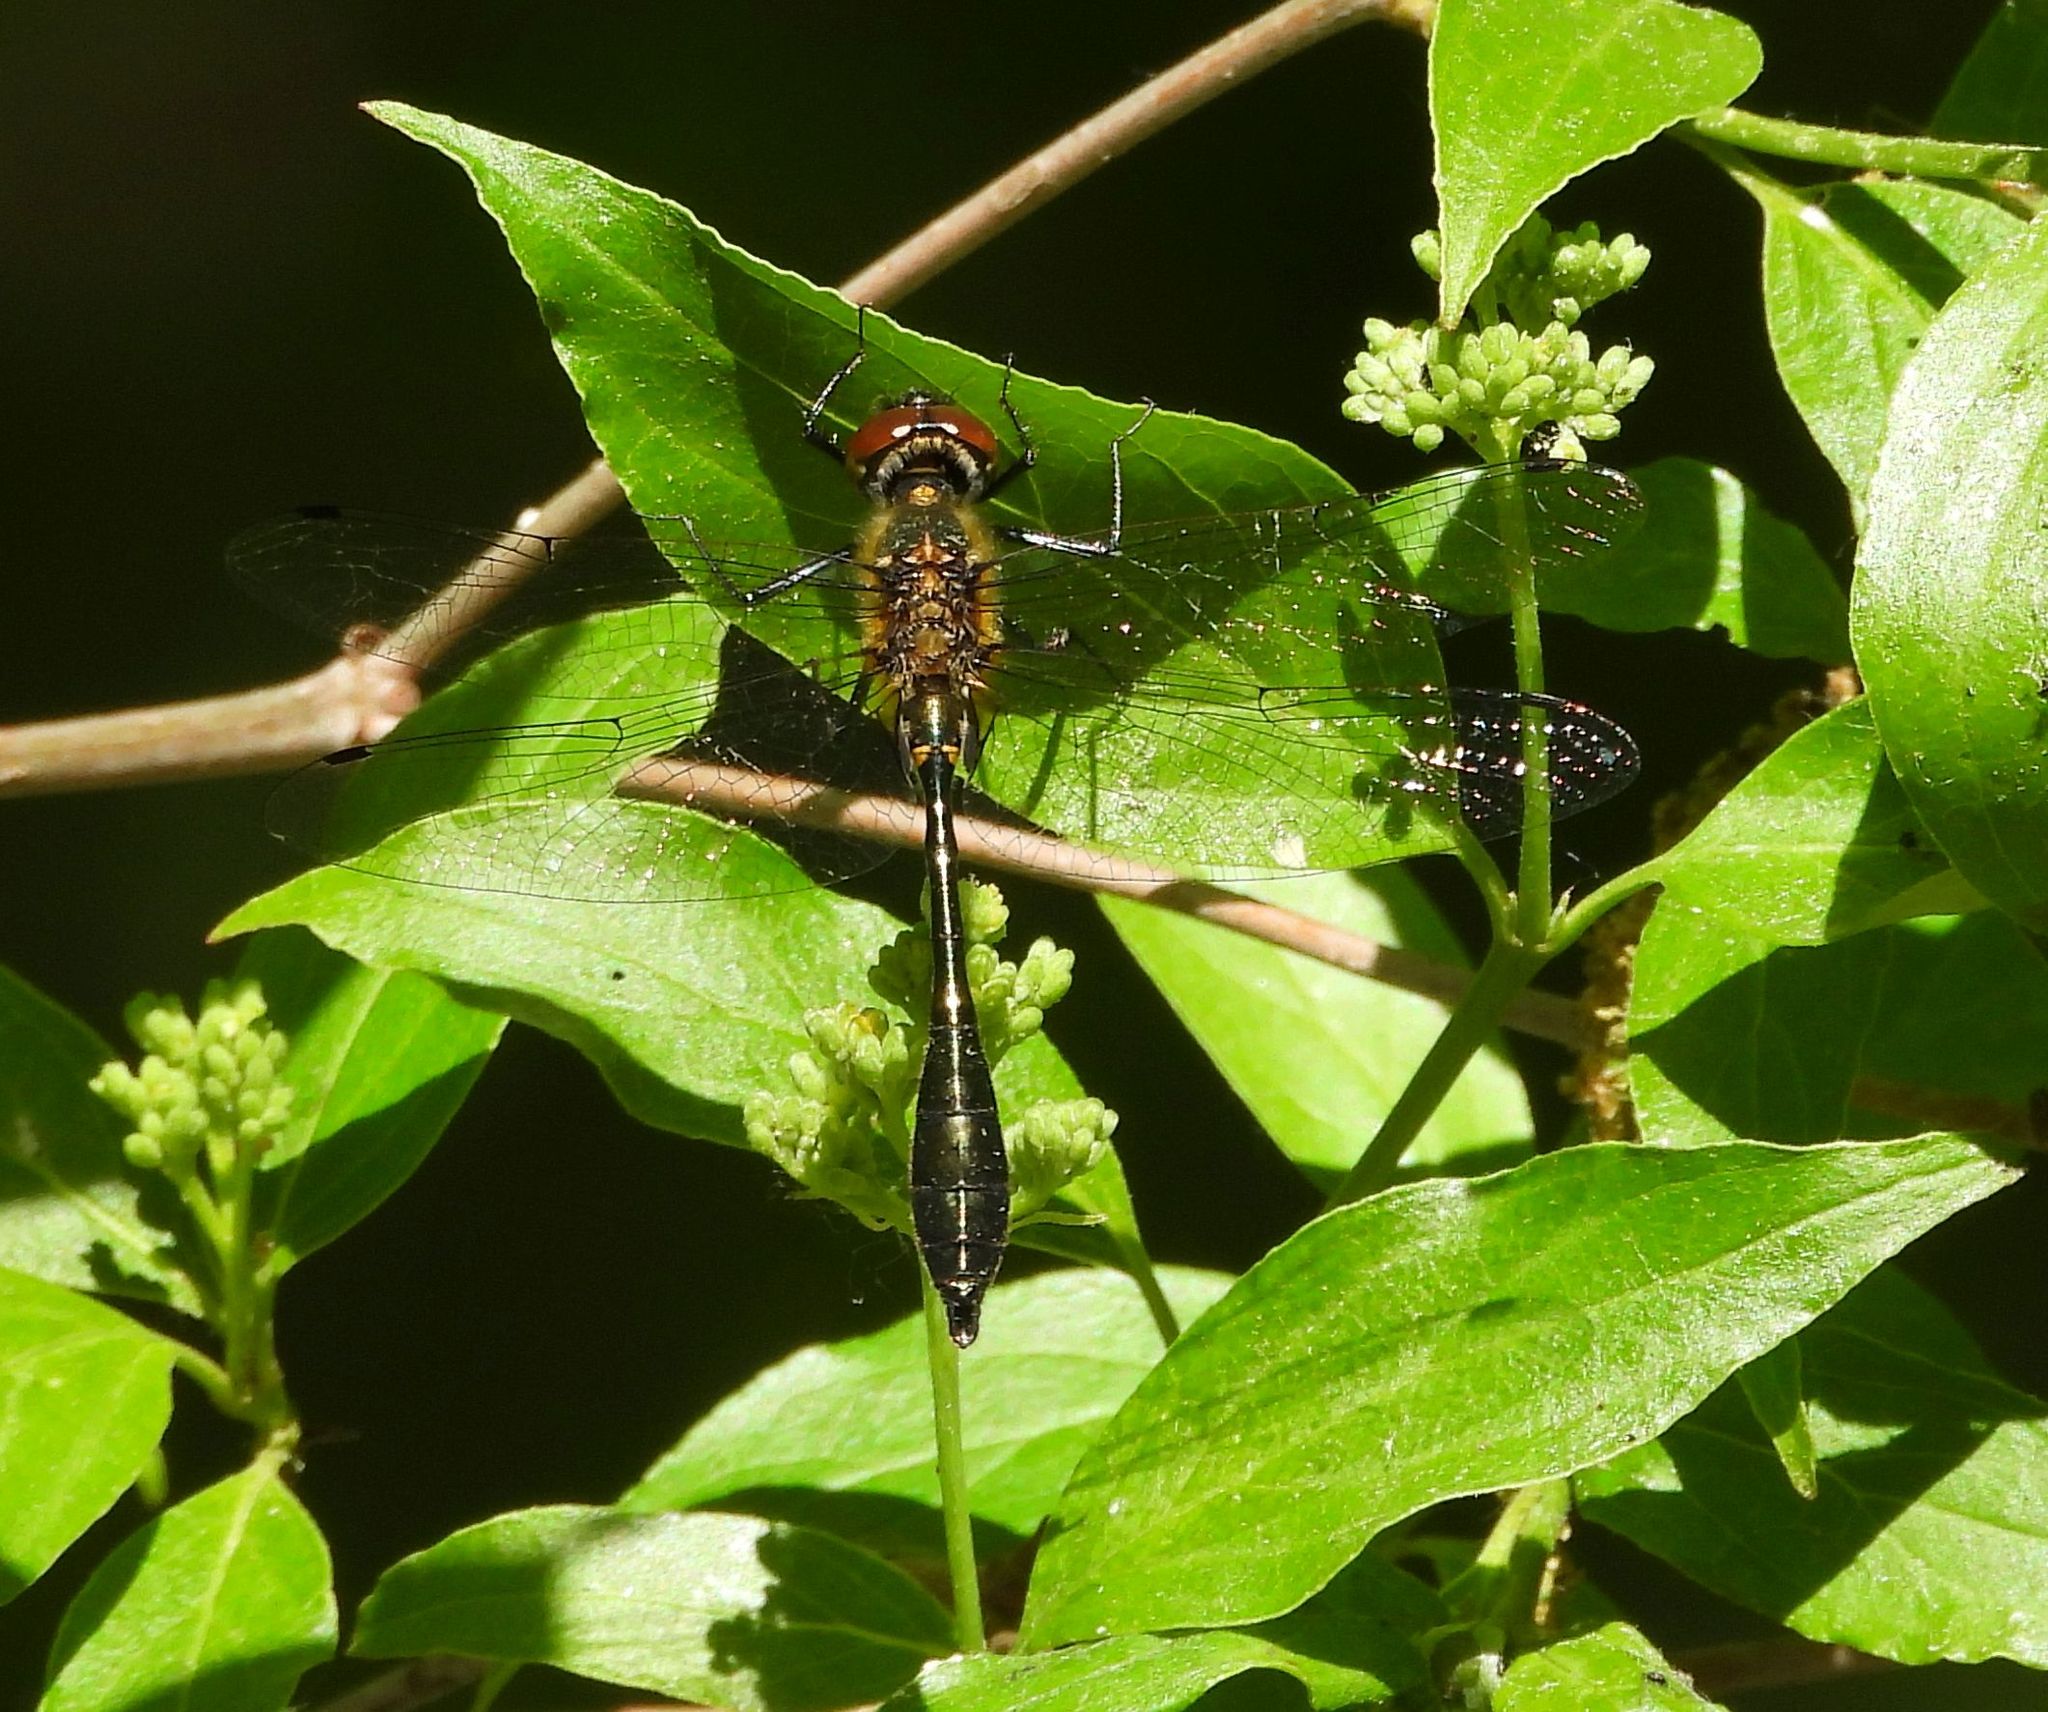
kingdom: Animalia
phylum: Arthropoda
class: Insecta
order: Odonata
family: Corduliidae
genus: Dorocordulia
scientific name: Dorocordulia libera
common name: Racket-tailed emerald
